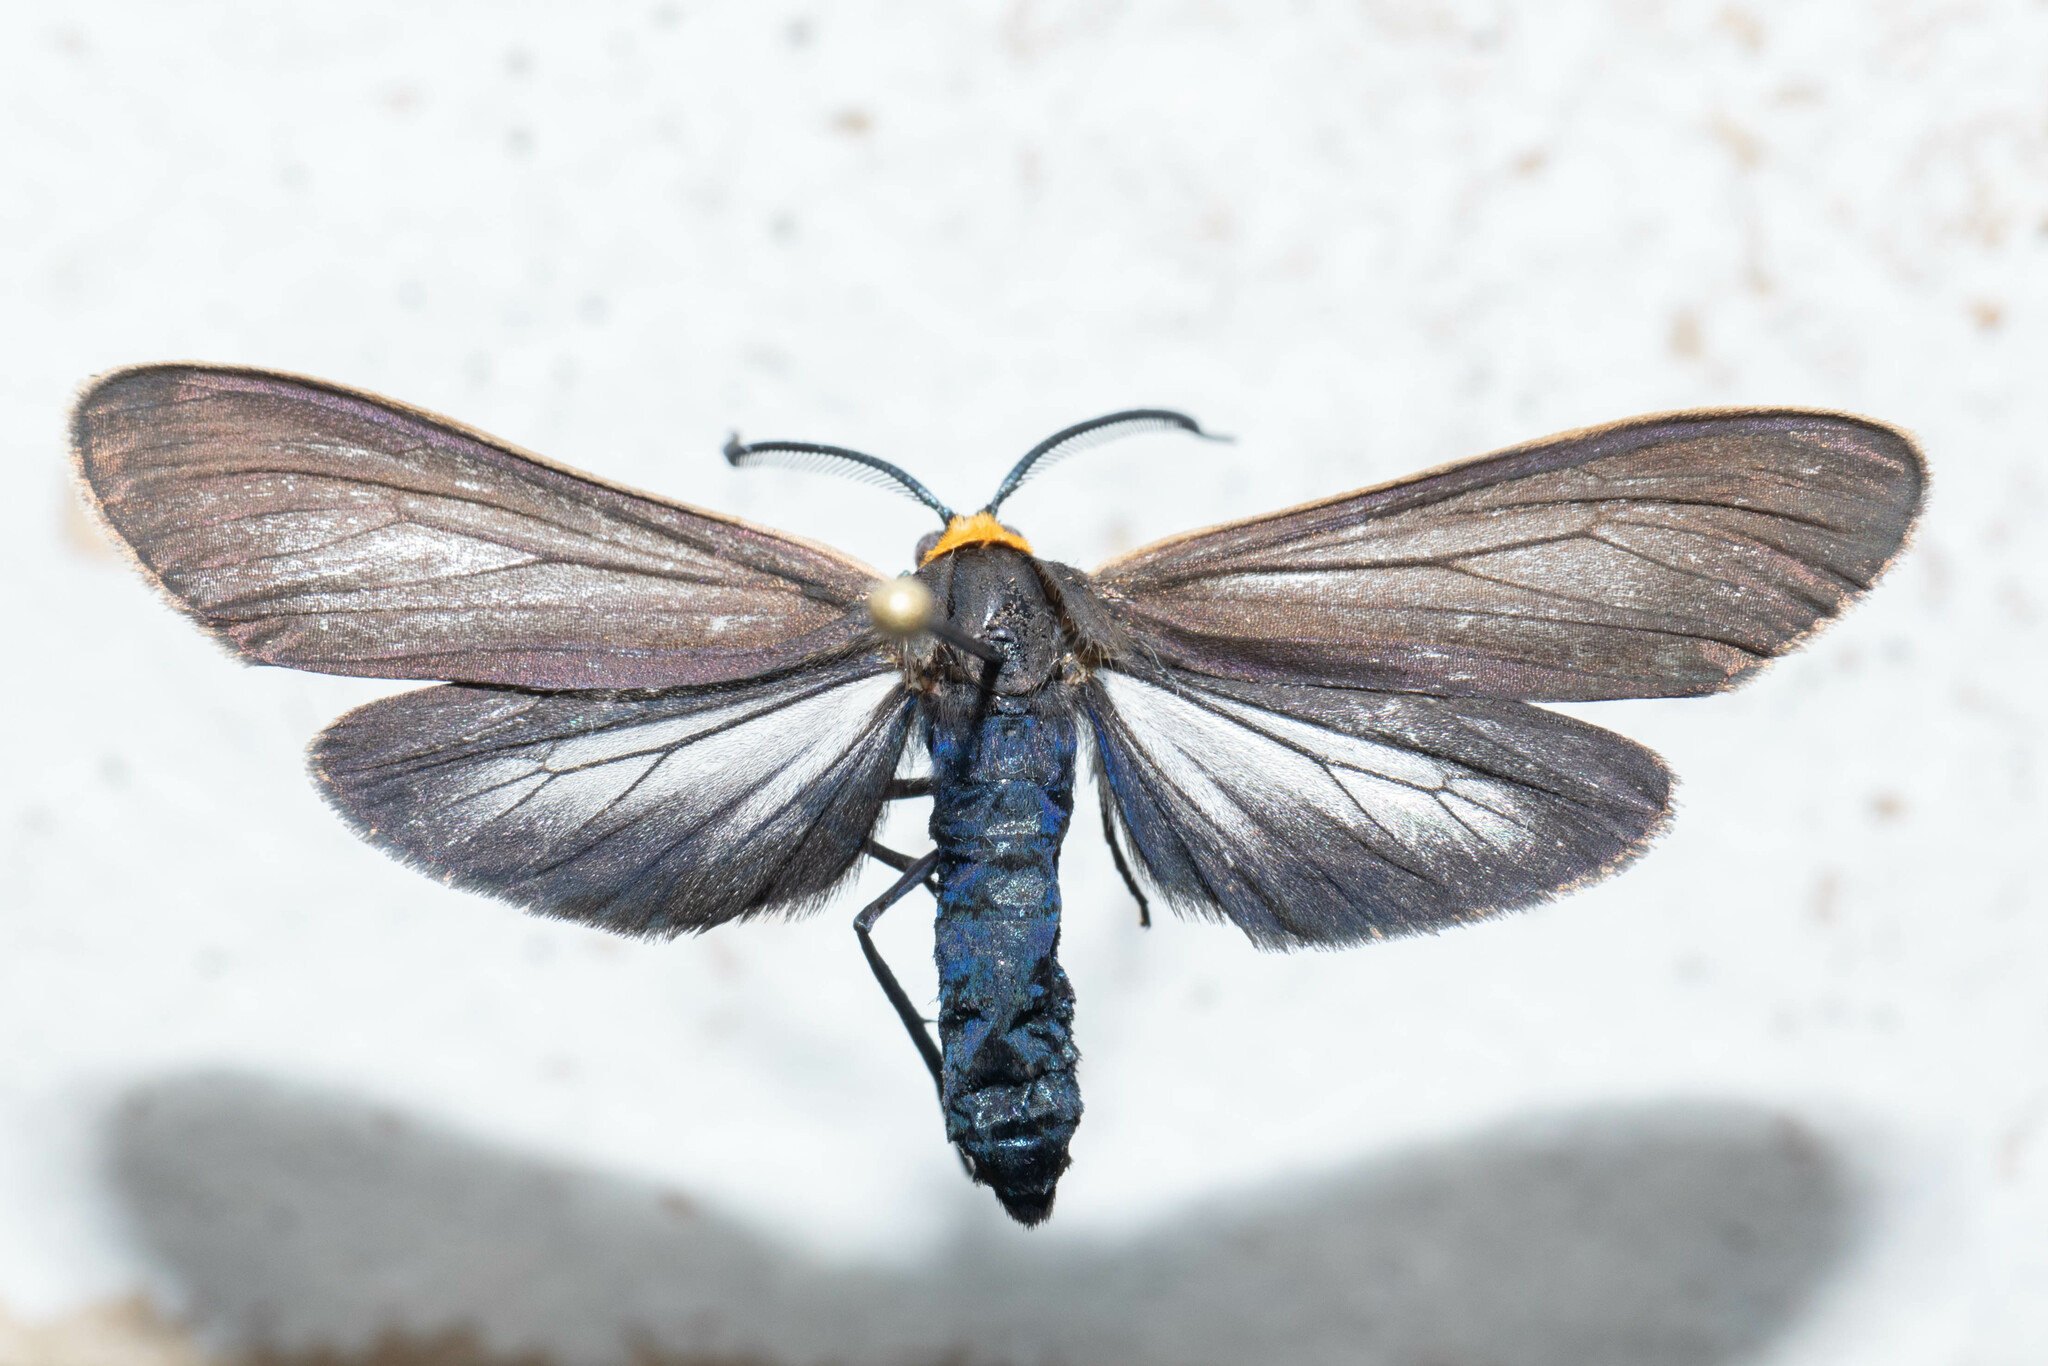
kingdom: Animalia
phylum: Arthropoda
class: Insecta
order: Lepidoptera
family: Erebidae
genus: Cisseps
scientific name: Cisseps fulvicollis
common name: Yellow-collared scape moth
